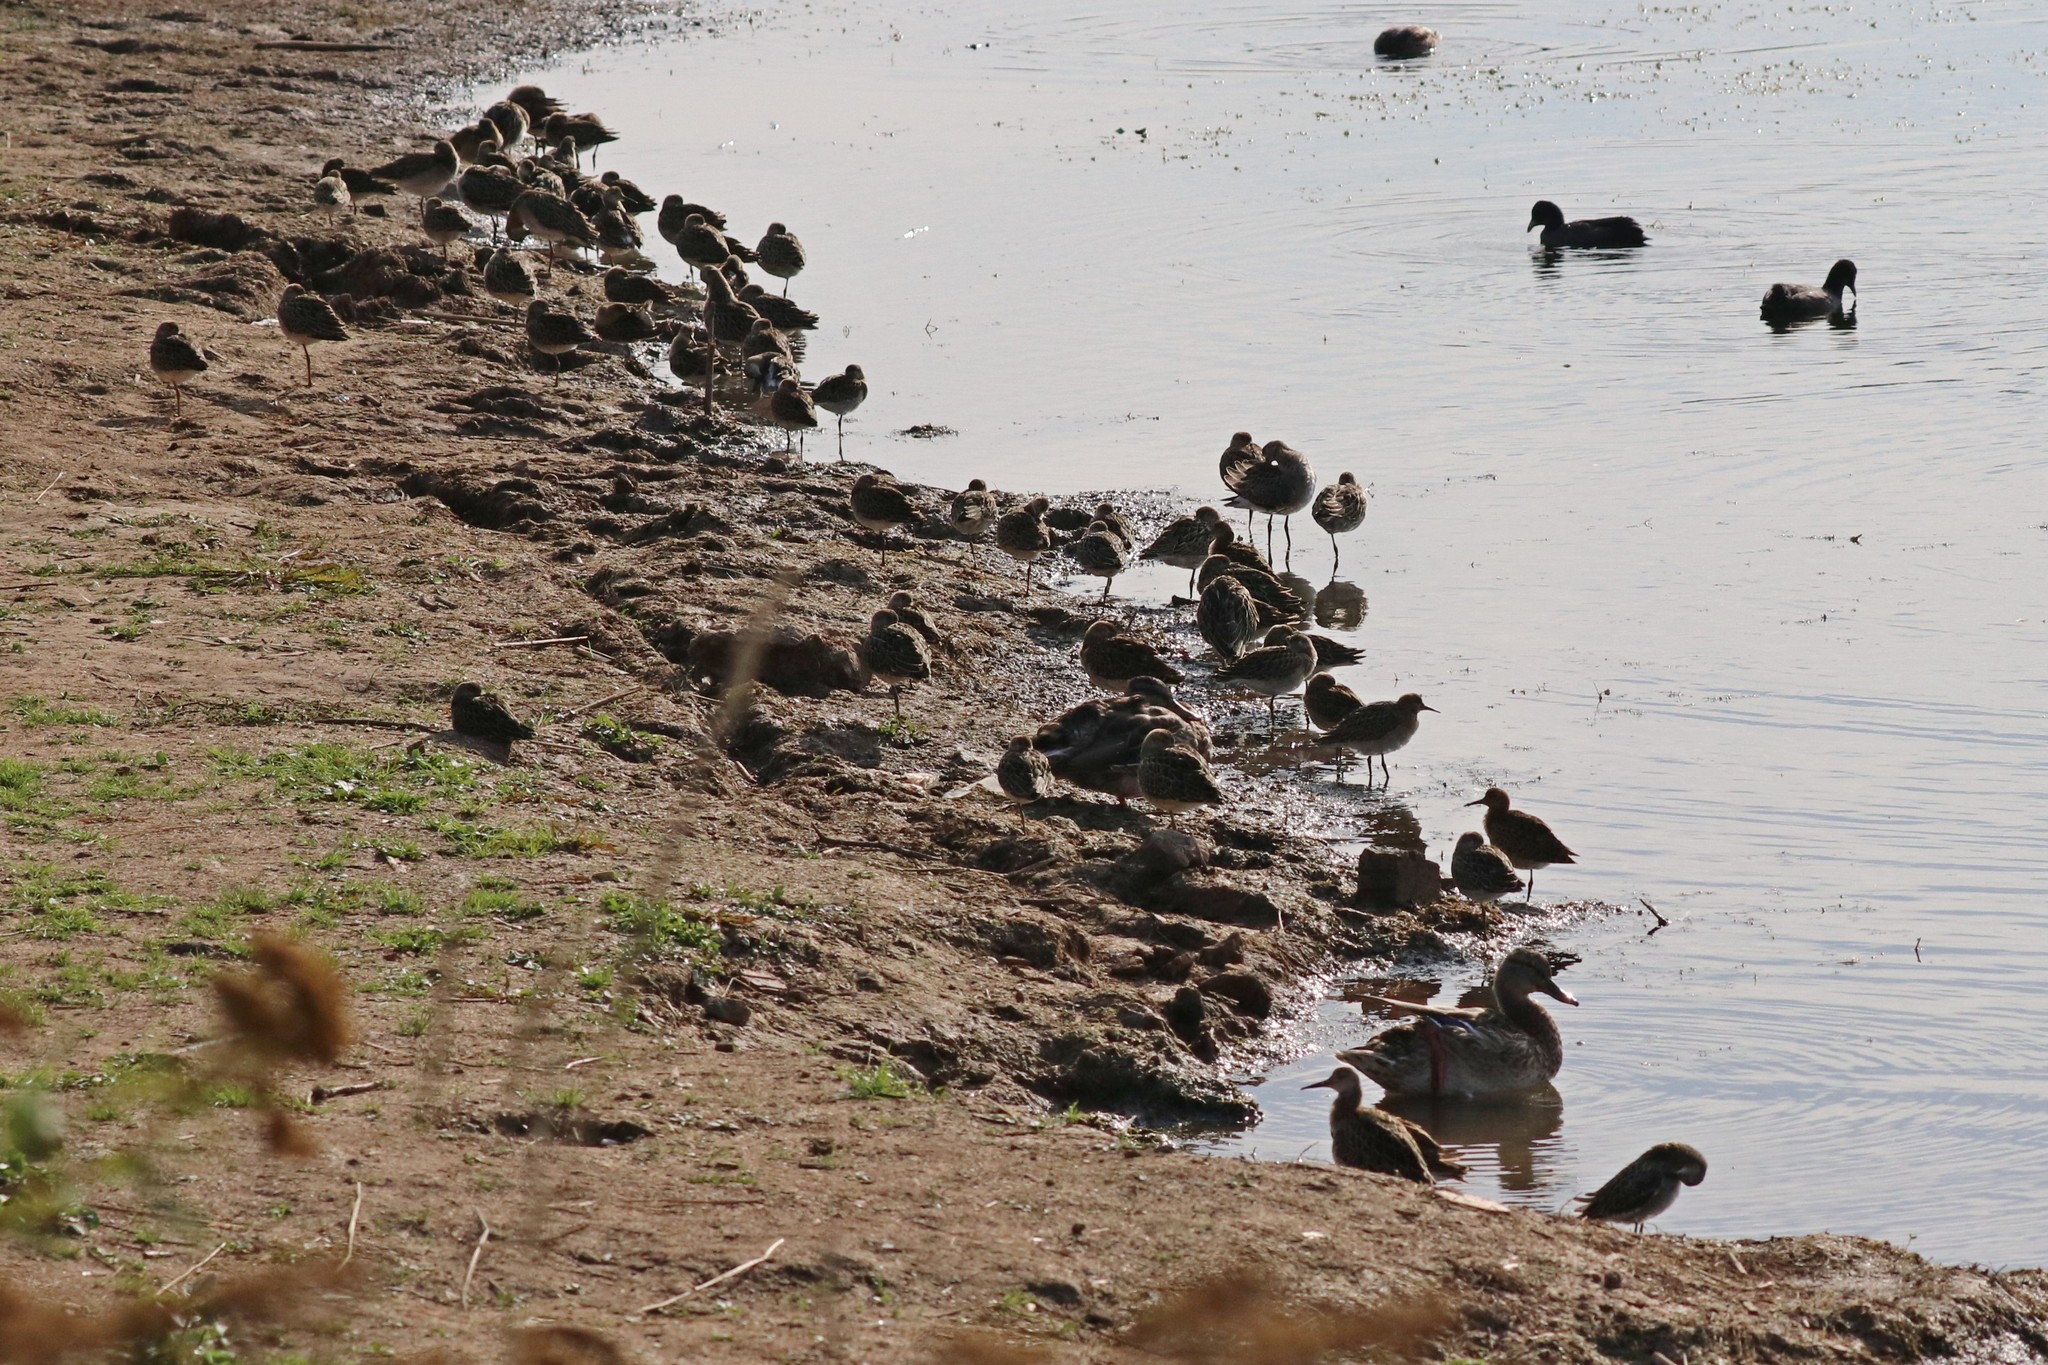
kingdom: Animalia
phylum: Chordata
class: Aves
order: Charadriiformes
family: Scolopacidae
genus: Calidris
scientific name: Calidris pugnax
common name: Ruff
